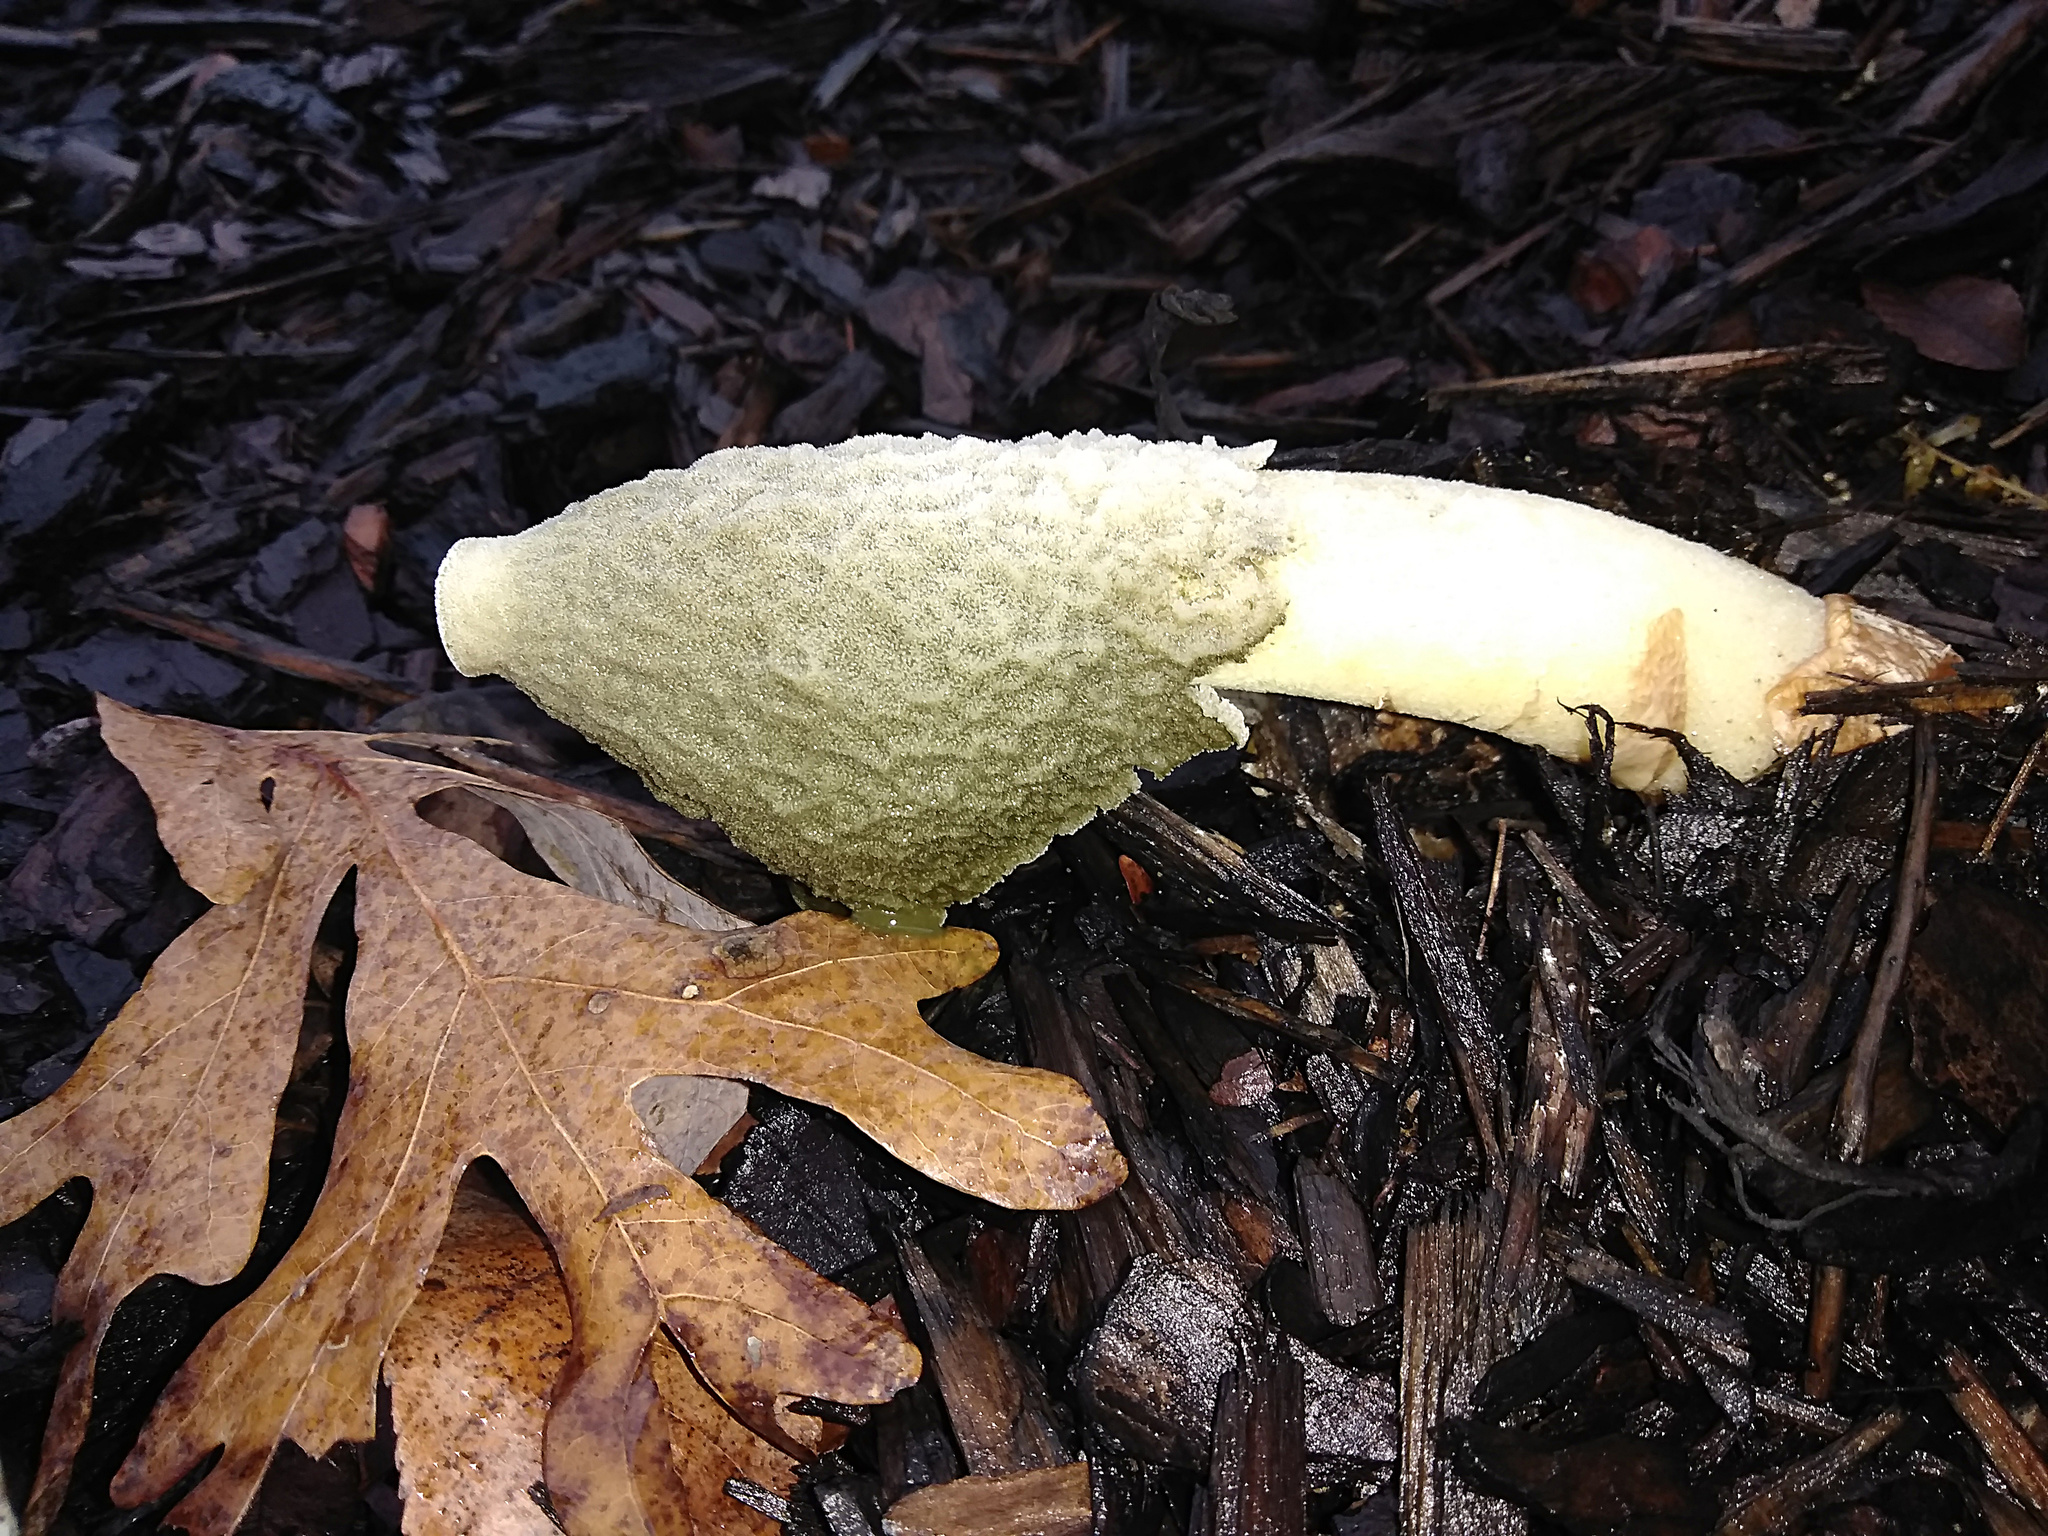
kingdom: Fungi
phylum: Basidiomycota
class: Agaricomycetes
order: Phallales
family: Phallaceae
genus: Phallus
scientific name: Phallus ravenelii
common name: Ravenel's stinkhorn
